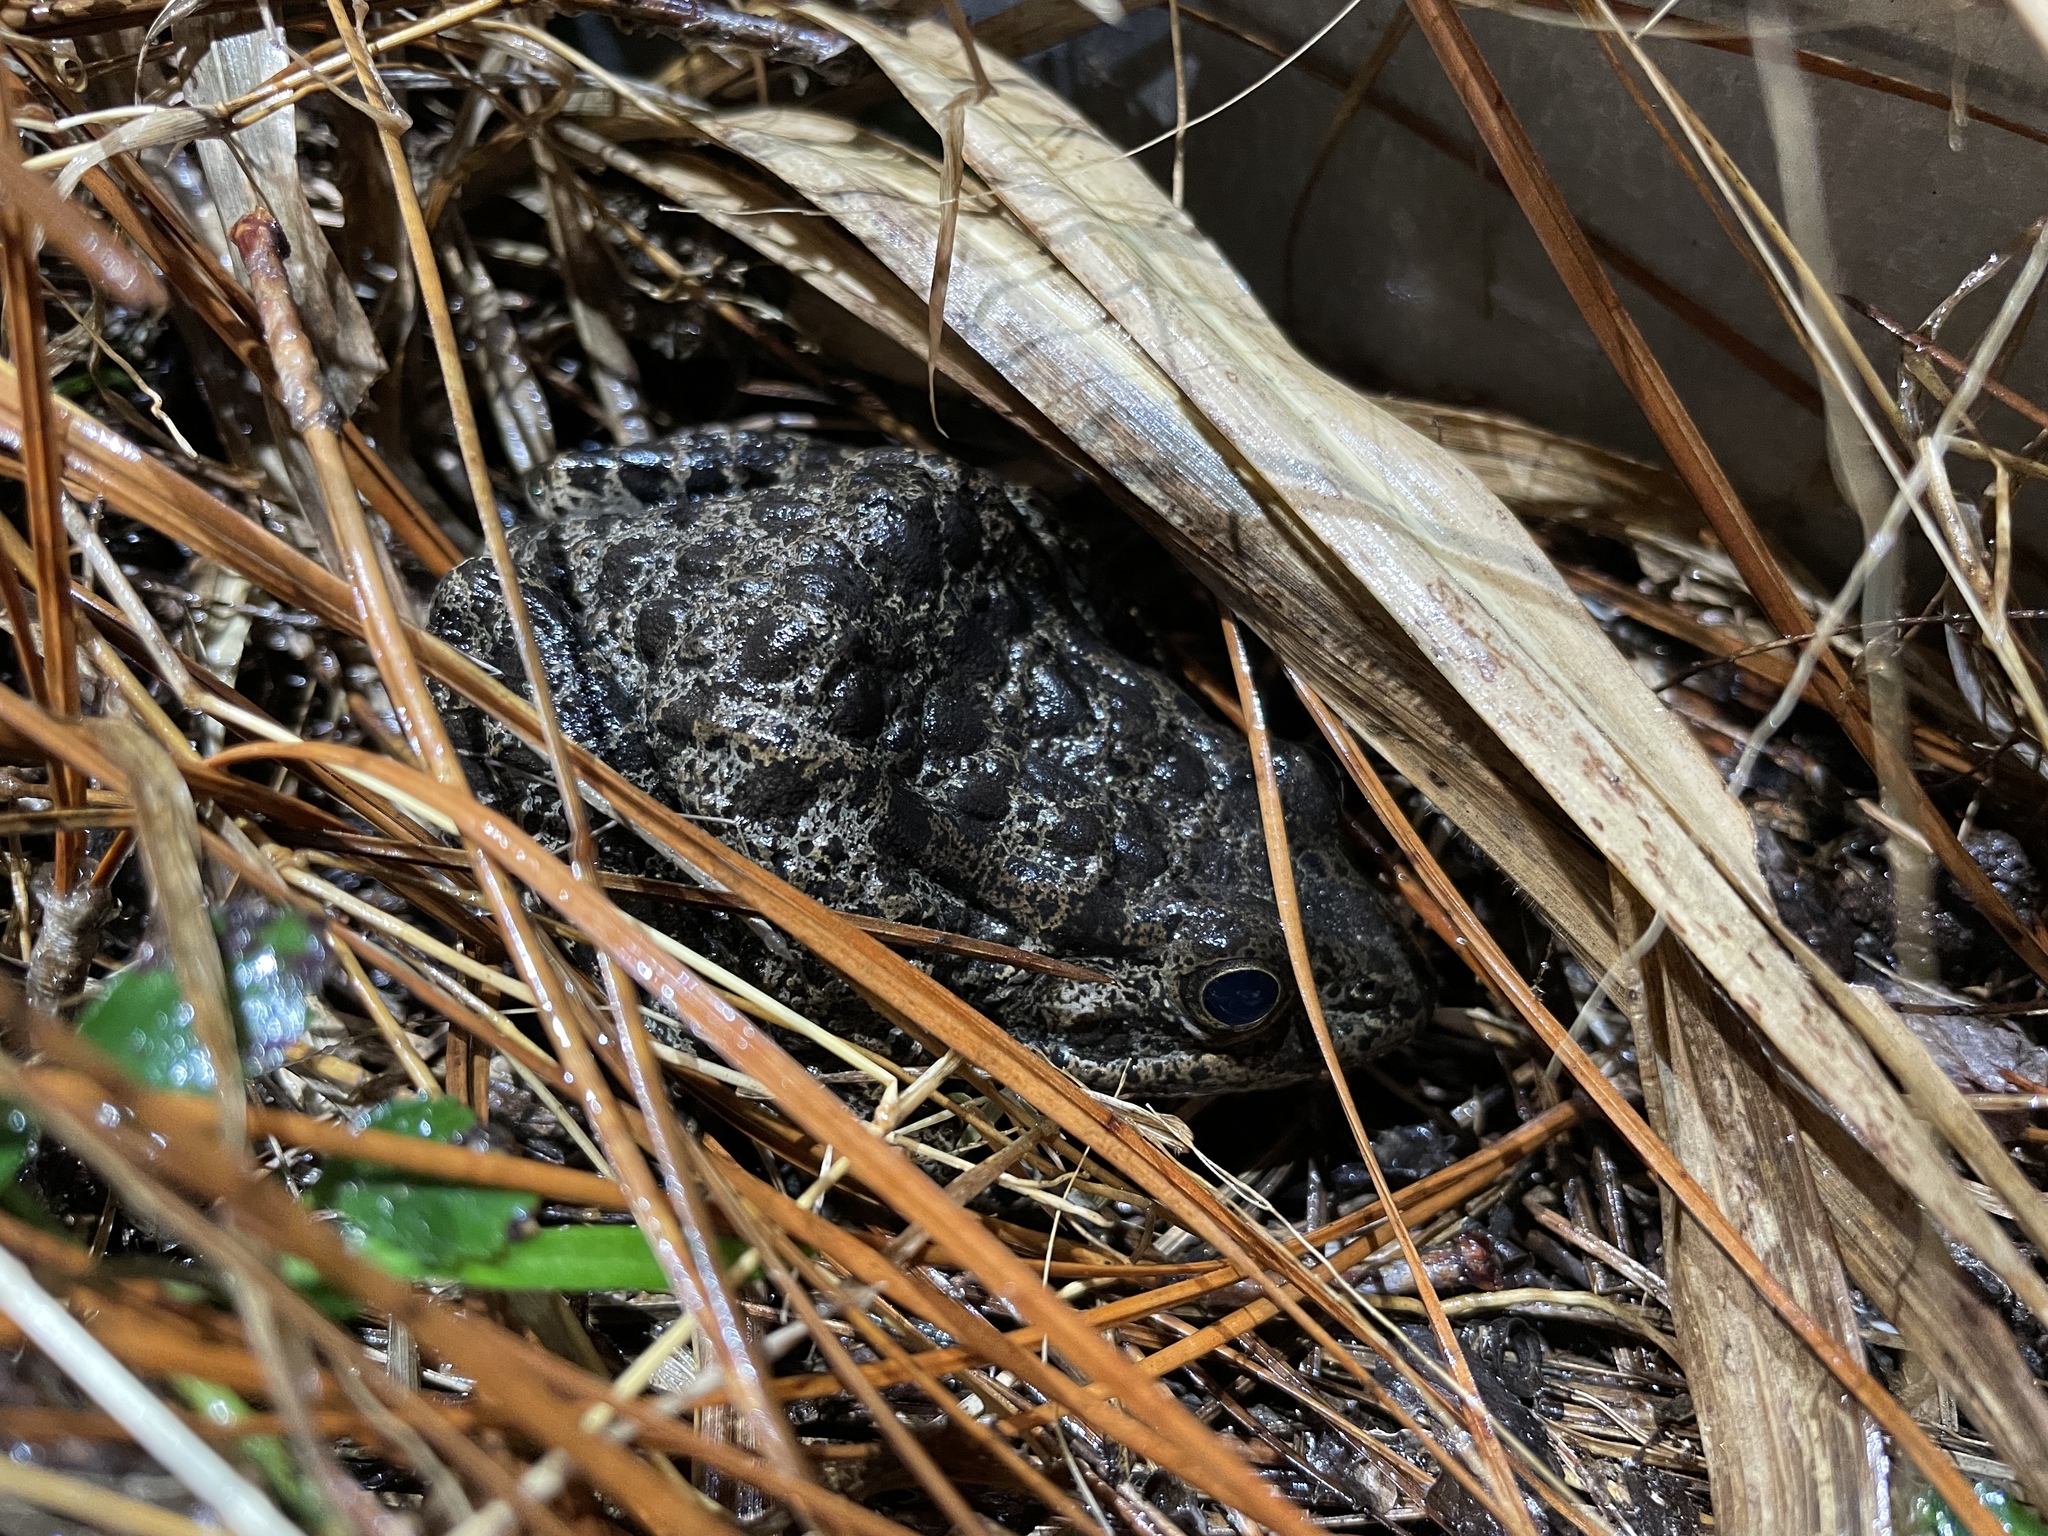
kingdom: Animalia
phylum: Chordata
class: Amphibia
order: Anura
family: Ranidae
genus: Lithobates
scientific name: Lithobates sevosus
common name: Dusky gopher frog
